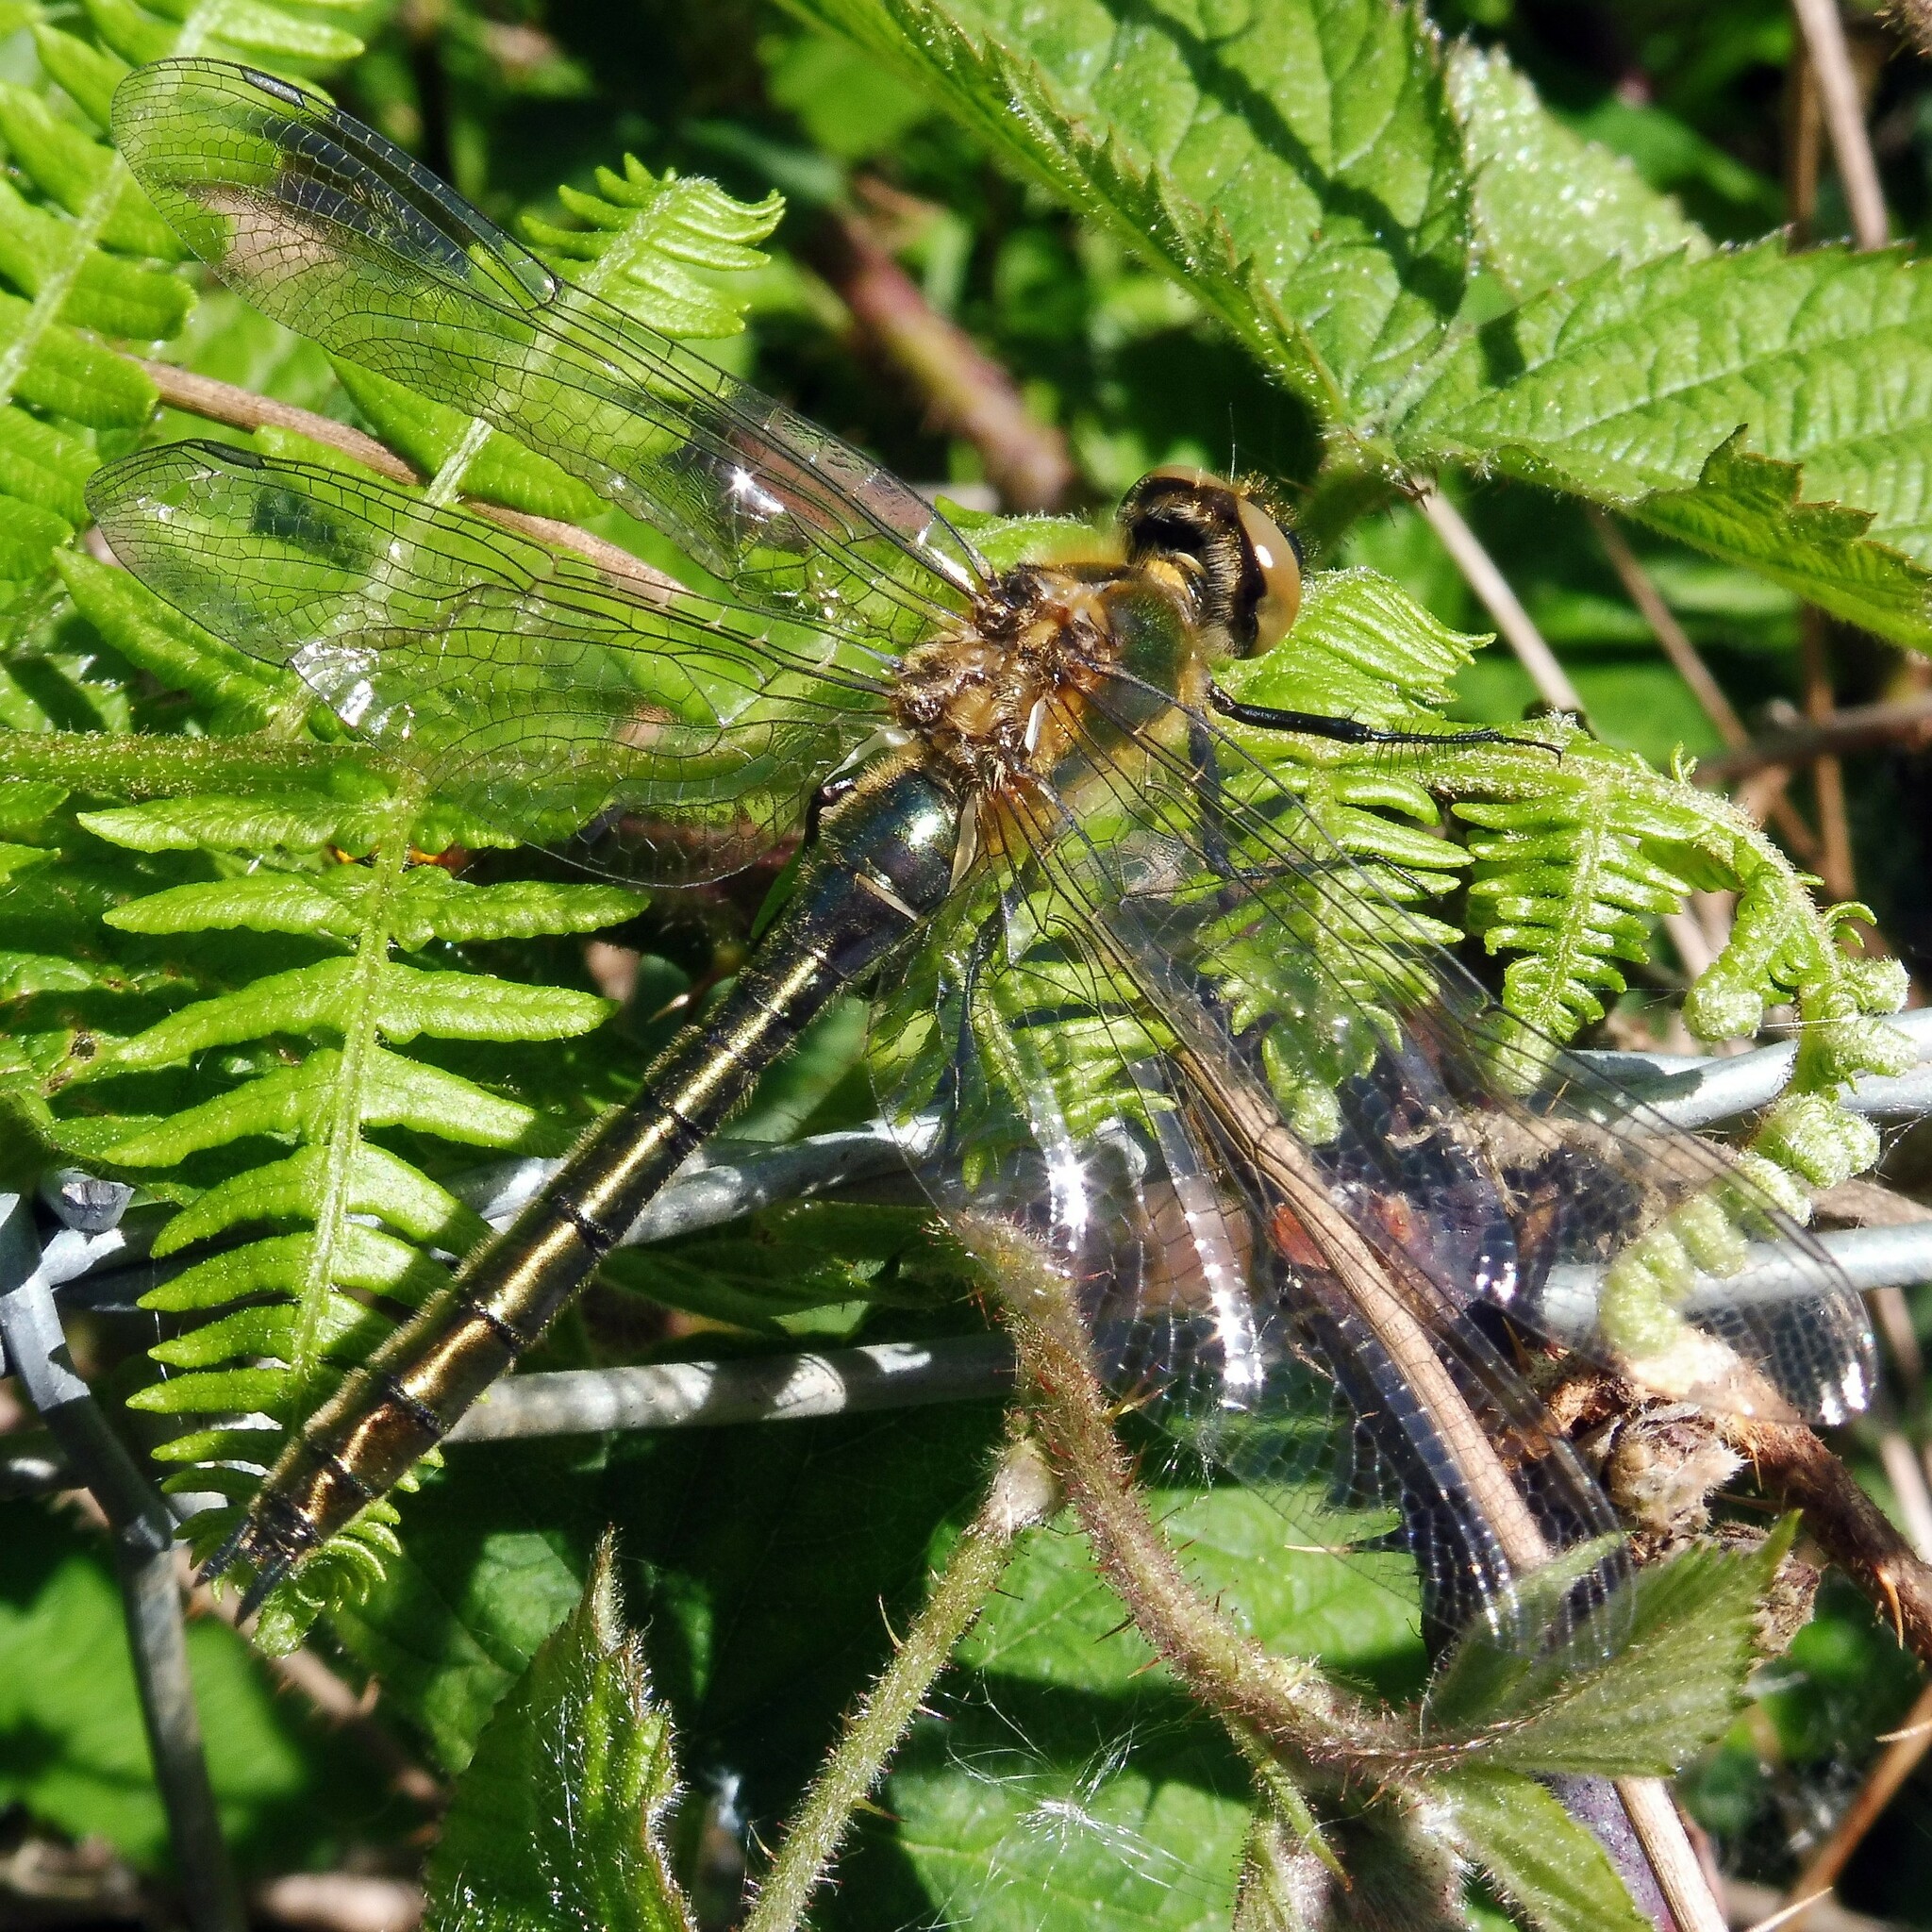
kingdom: Animalia
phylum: Arthropoda
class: Insecta
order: Odonata
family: Corduliidae
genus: Cordulia
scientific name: Cordulia aenea
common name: Downy emerald
